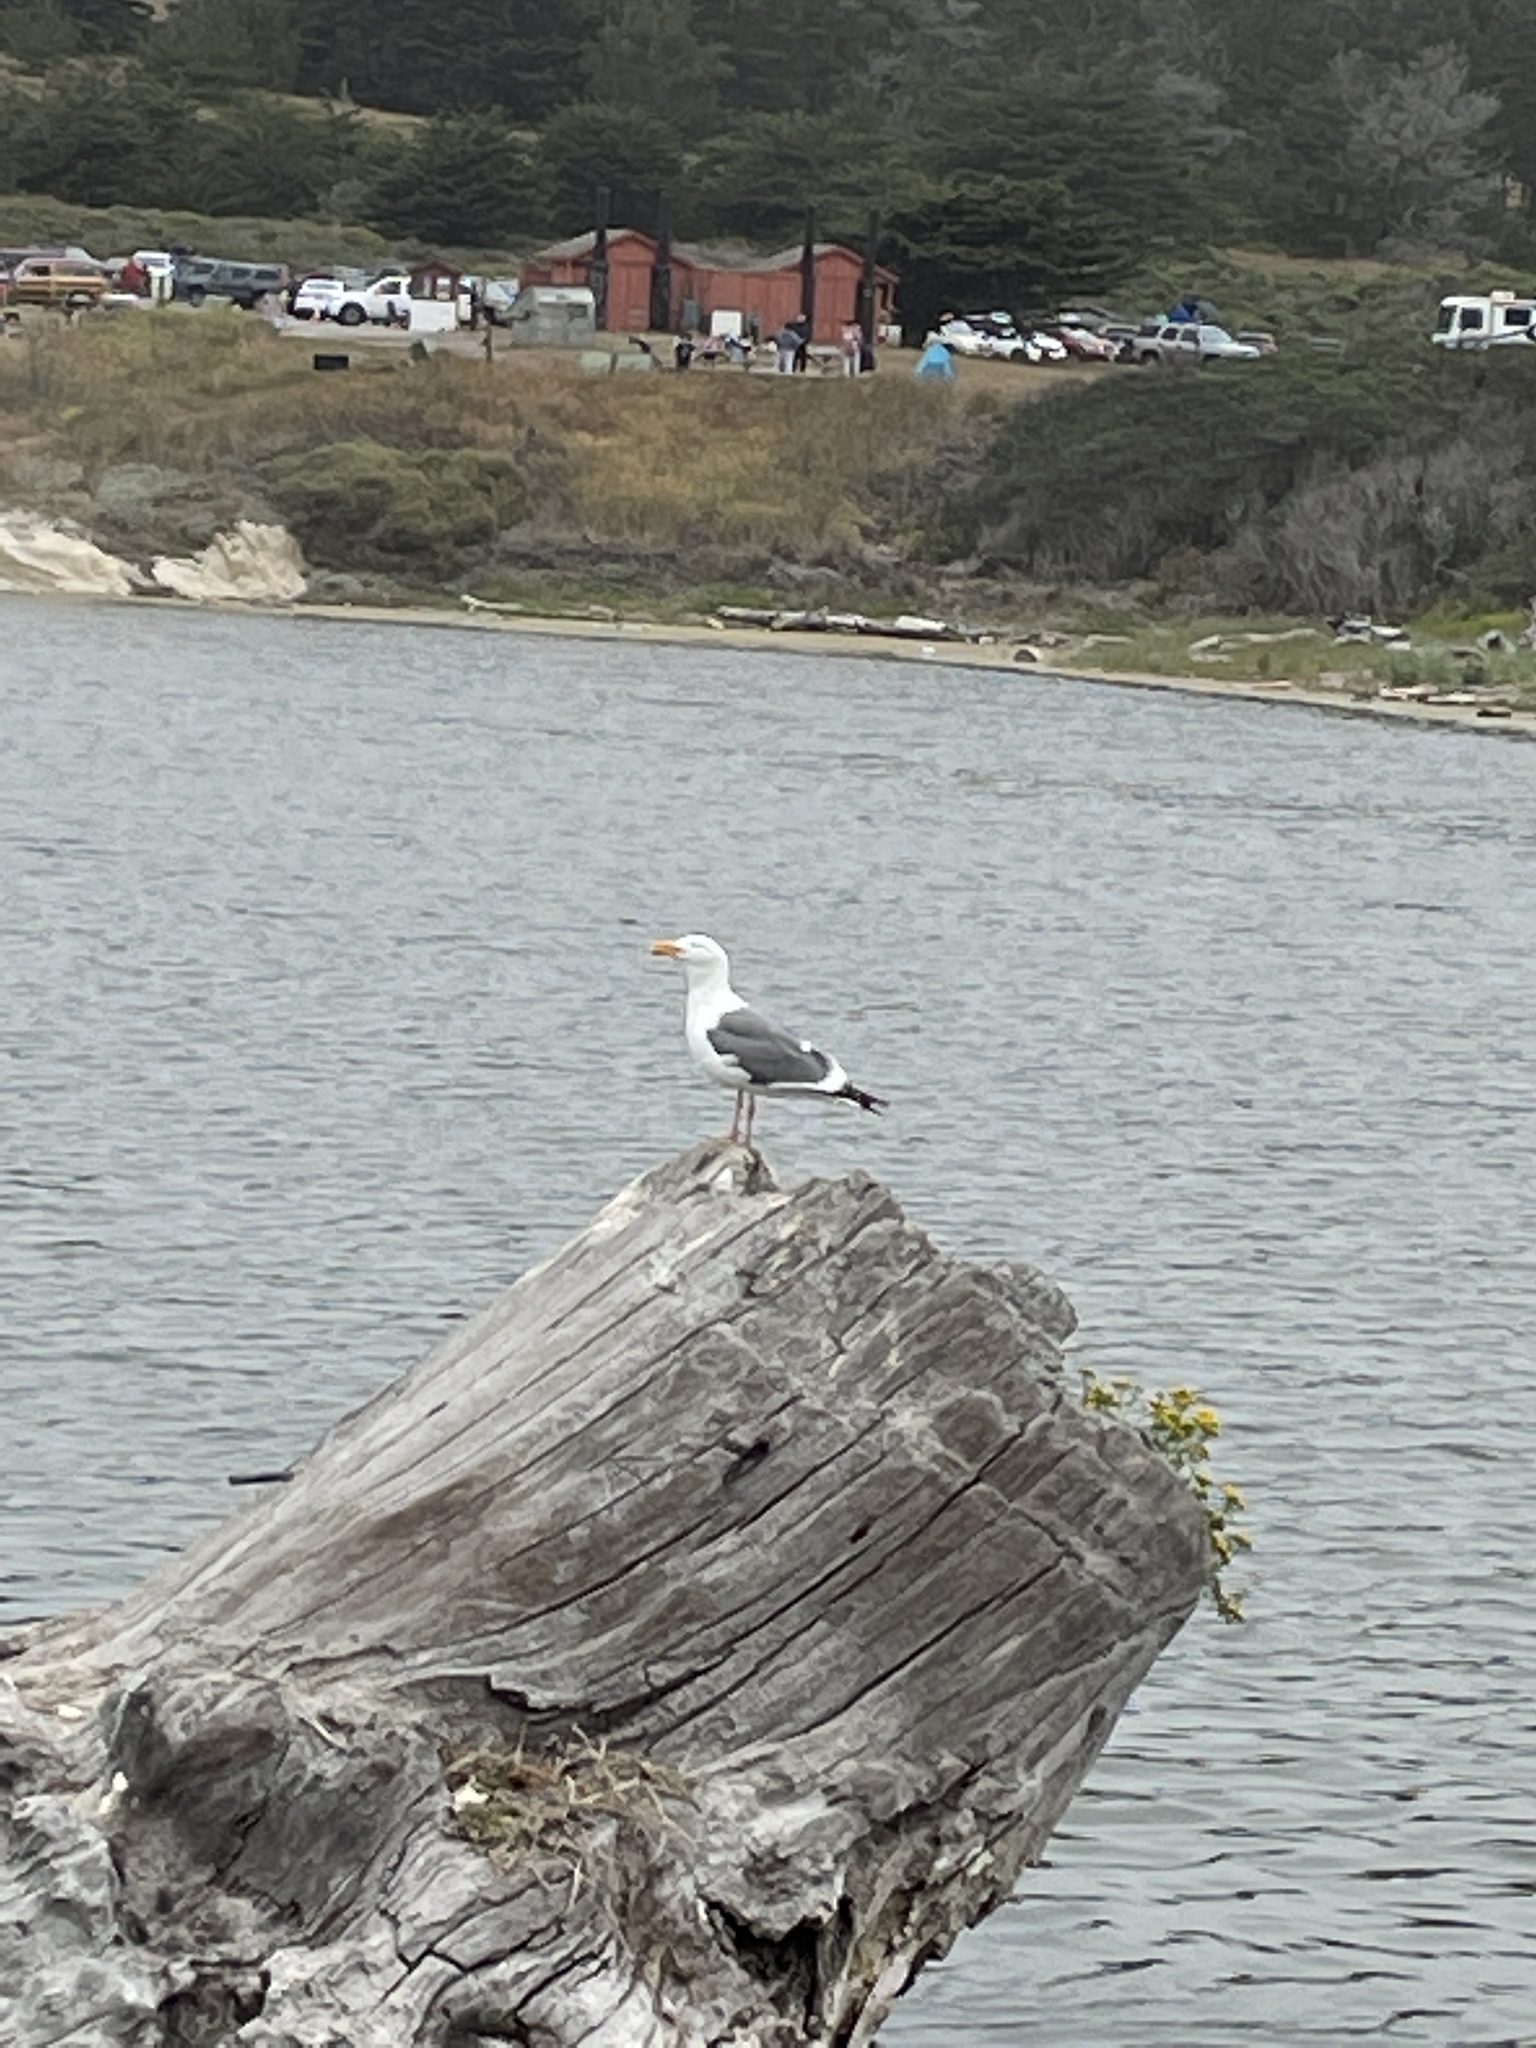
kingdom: Animalia
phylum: Chordata
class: Aves
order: Charadriiformes
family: Laridae
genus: Larus
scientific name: Larus occidentalis
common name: Western gull
